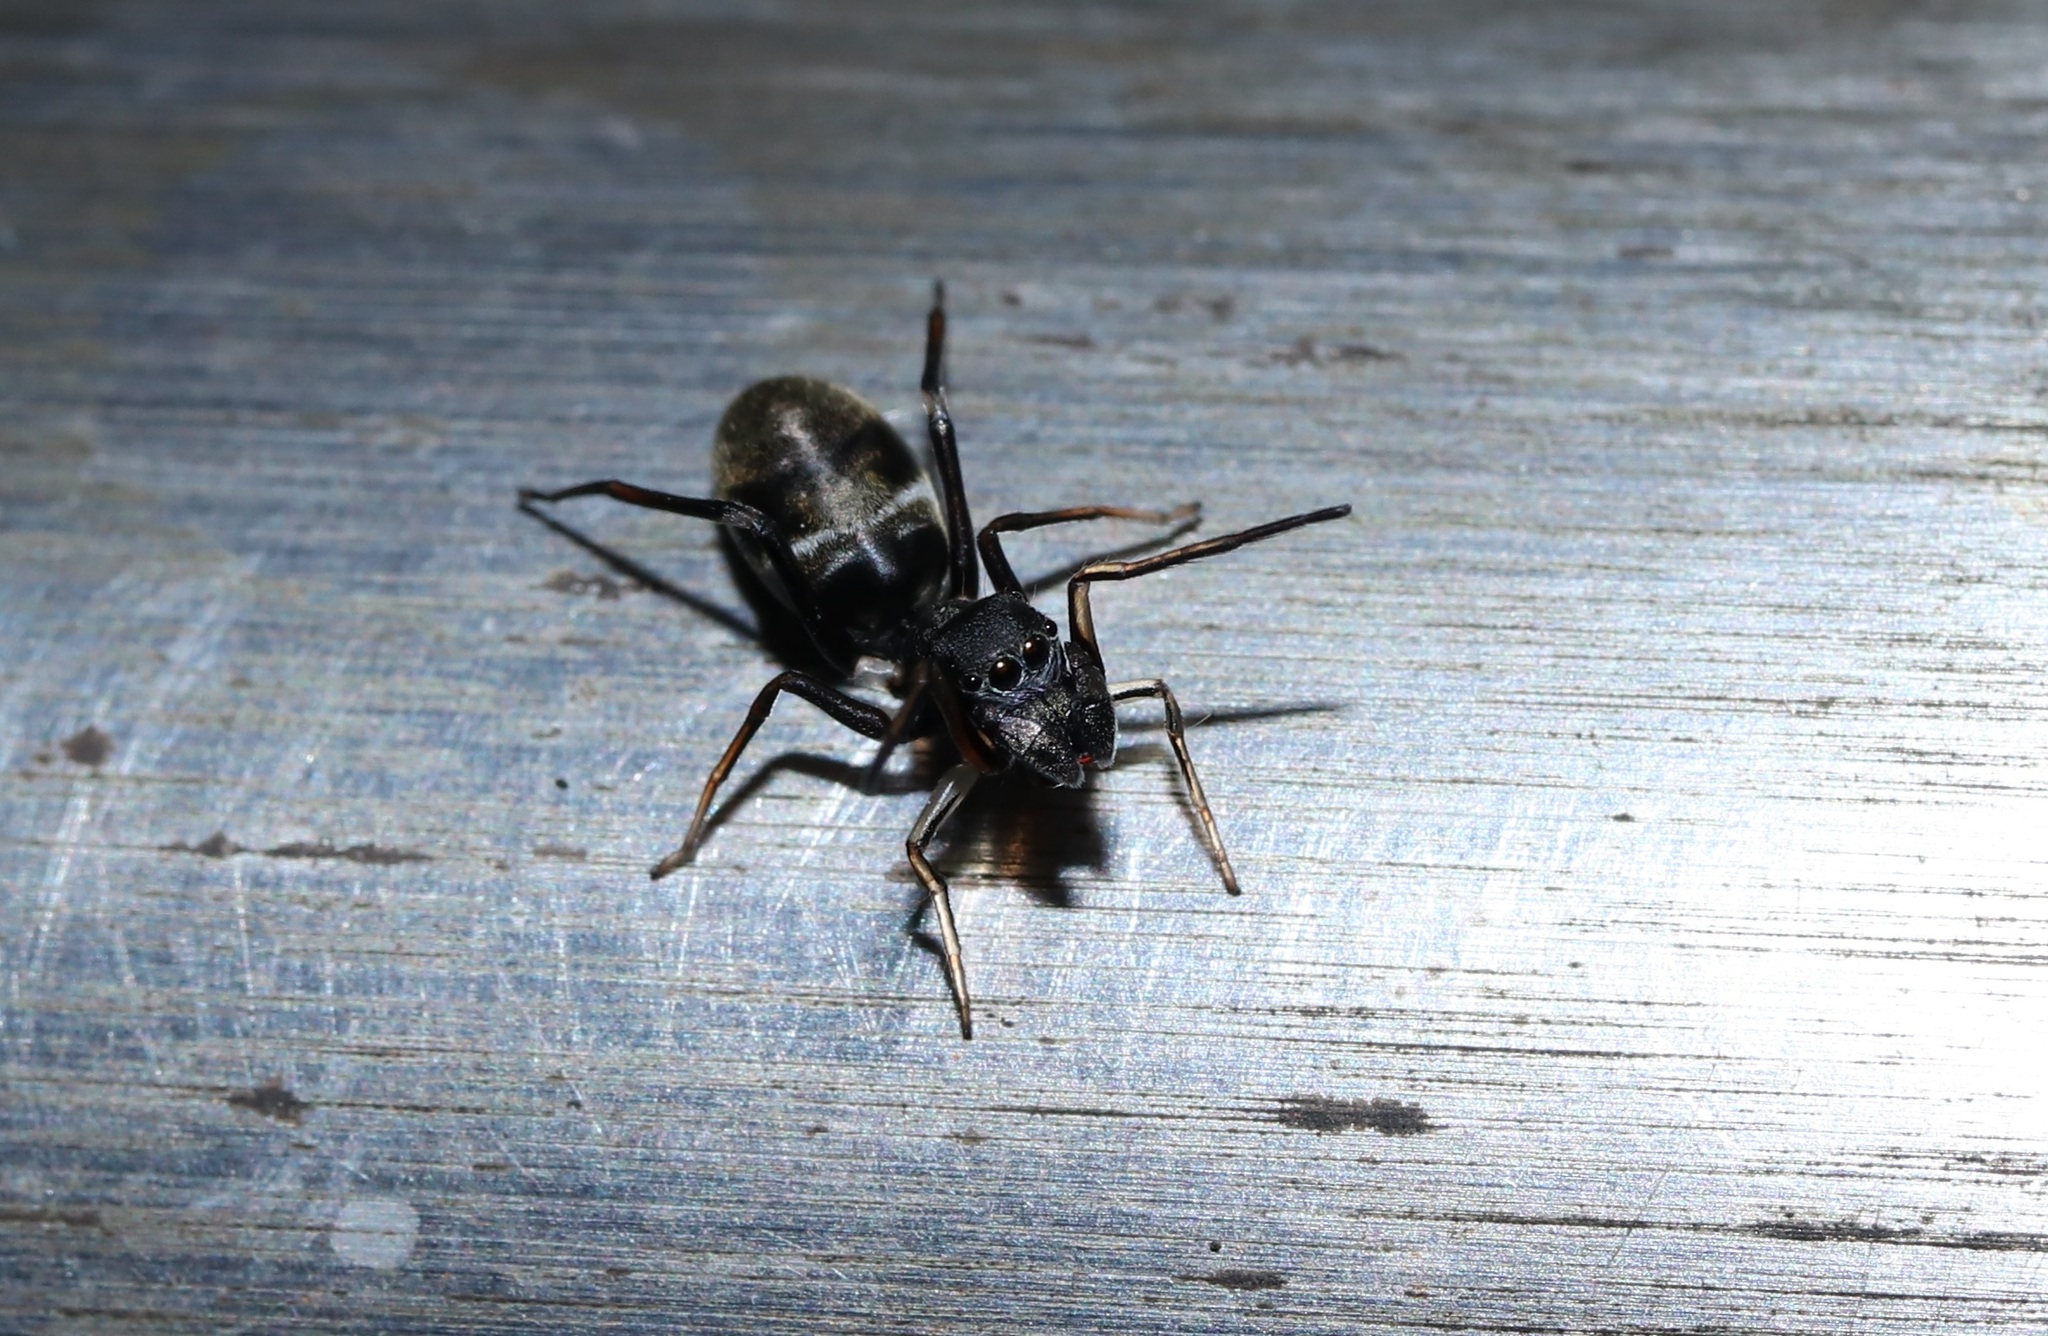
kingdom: Animalia
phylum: Arthropoda
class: Arachnida
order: Araneae
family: Salticidae
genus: Myrmarachne
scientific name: Myrmarachne japonica
